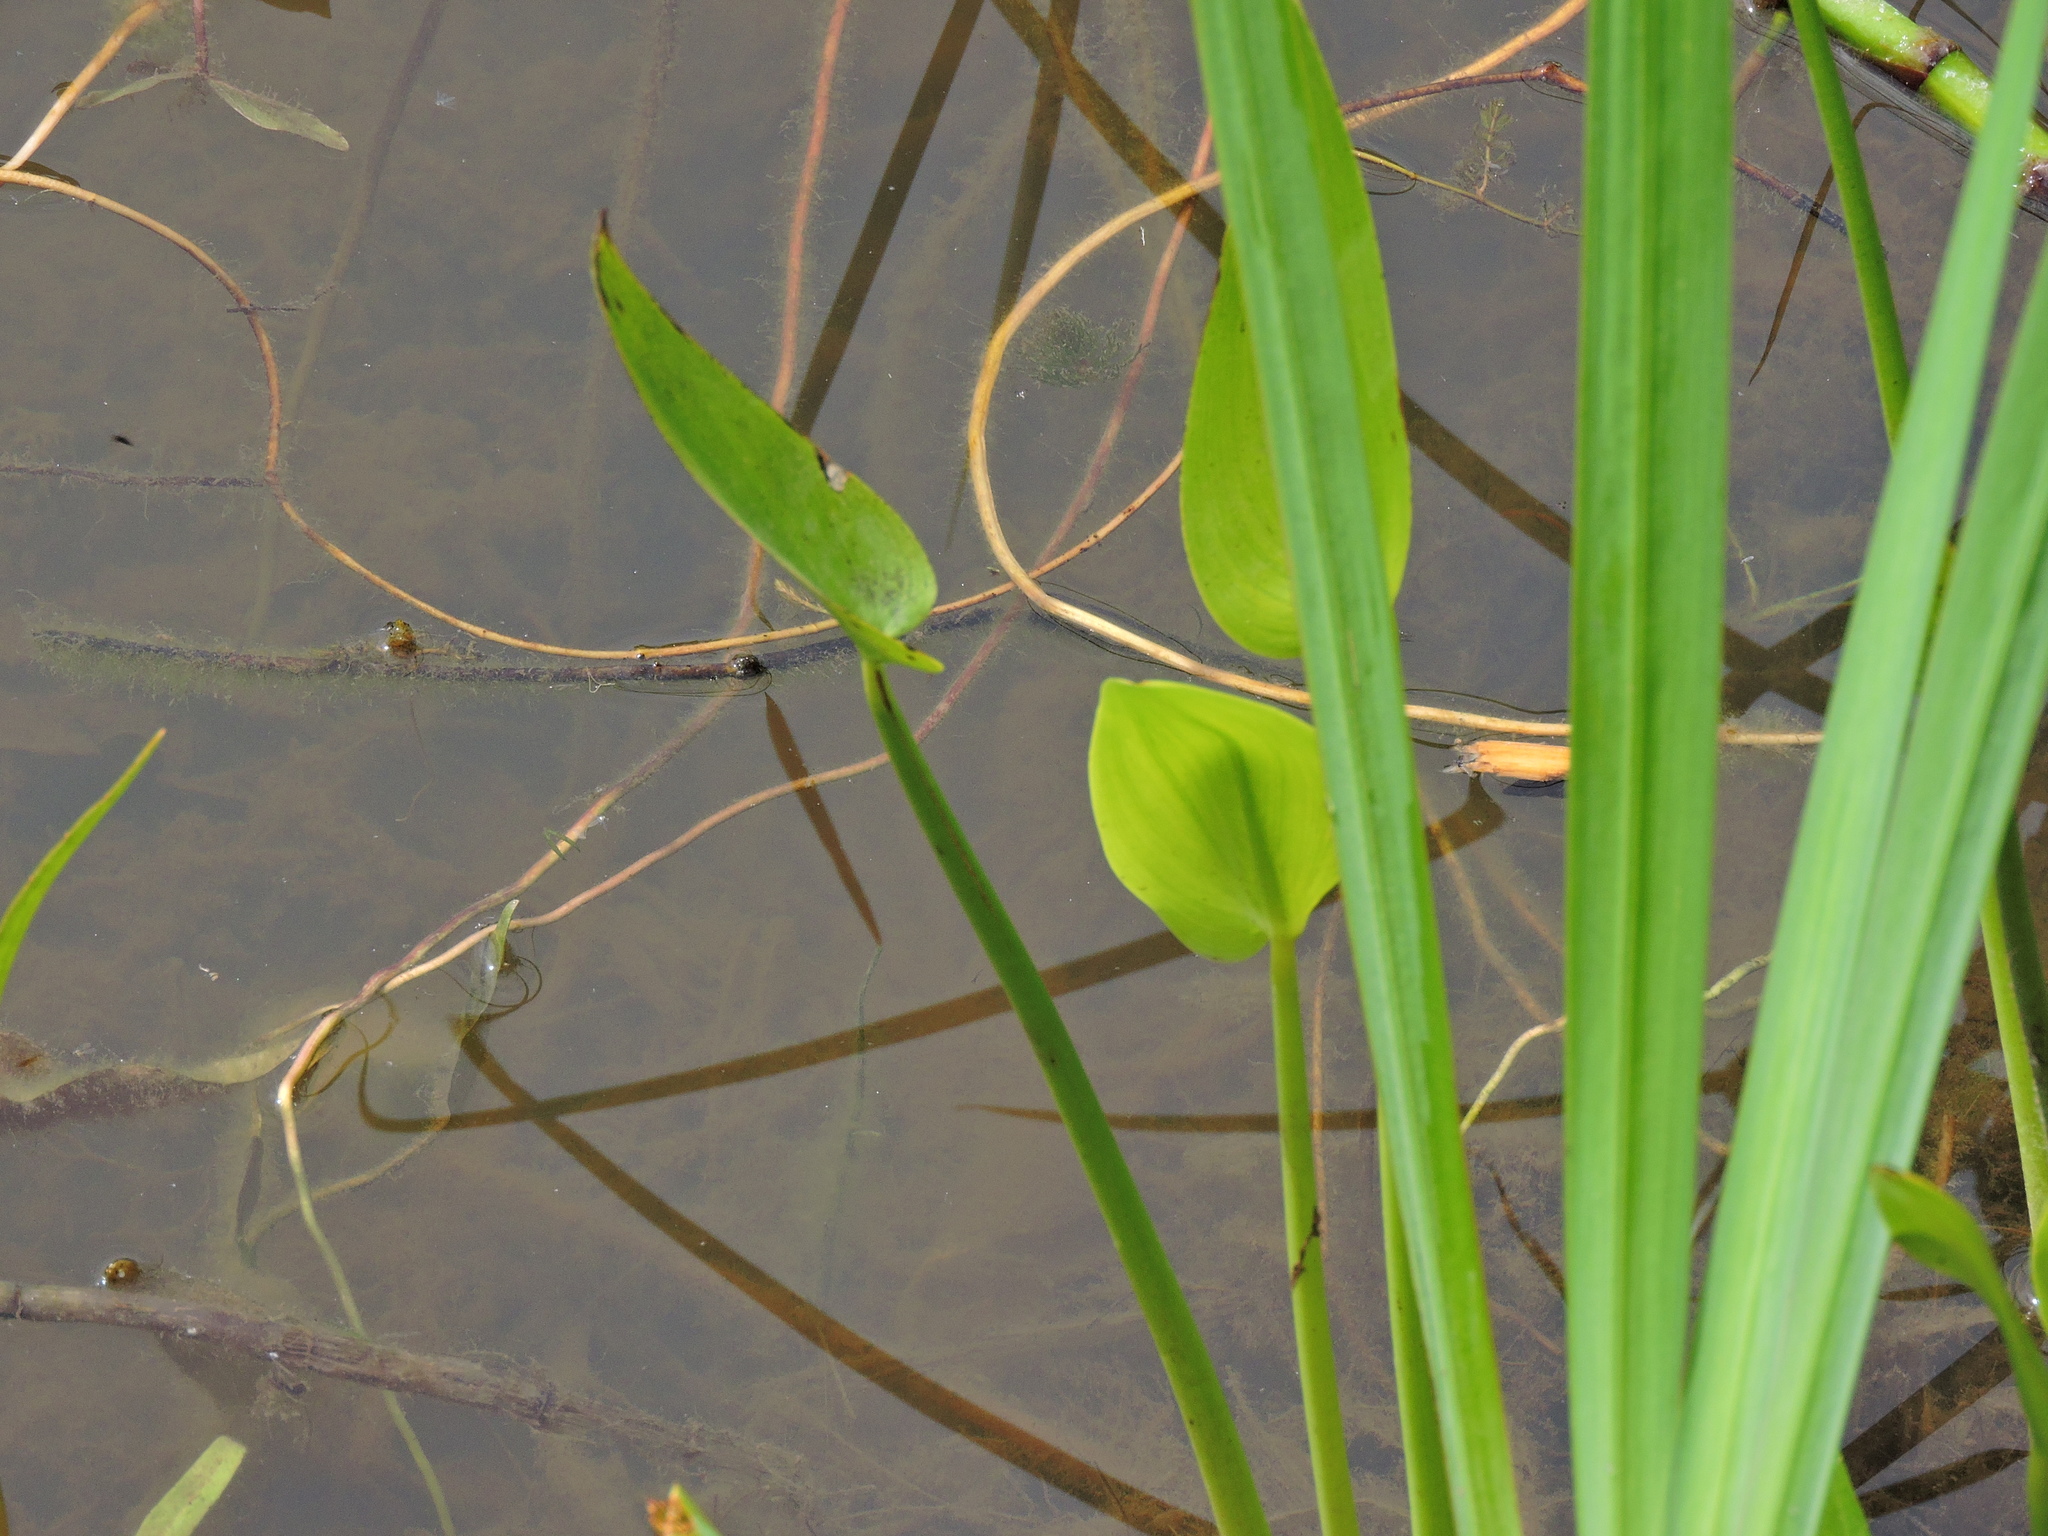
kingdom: Plantae
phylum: Tracheophyta
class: Liliopsida
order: Alismatales
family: Alismataceae
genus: Alisma
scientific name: Alisma plantago-aquatica
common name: Water-plantain
